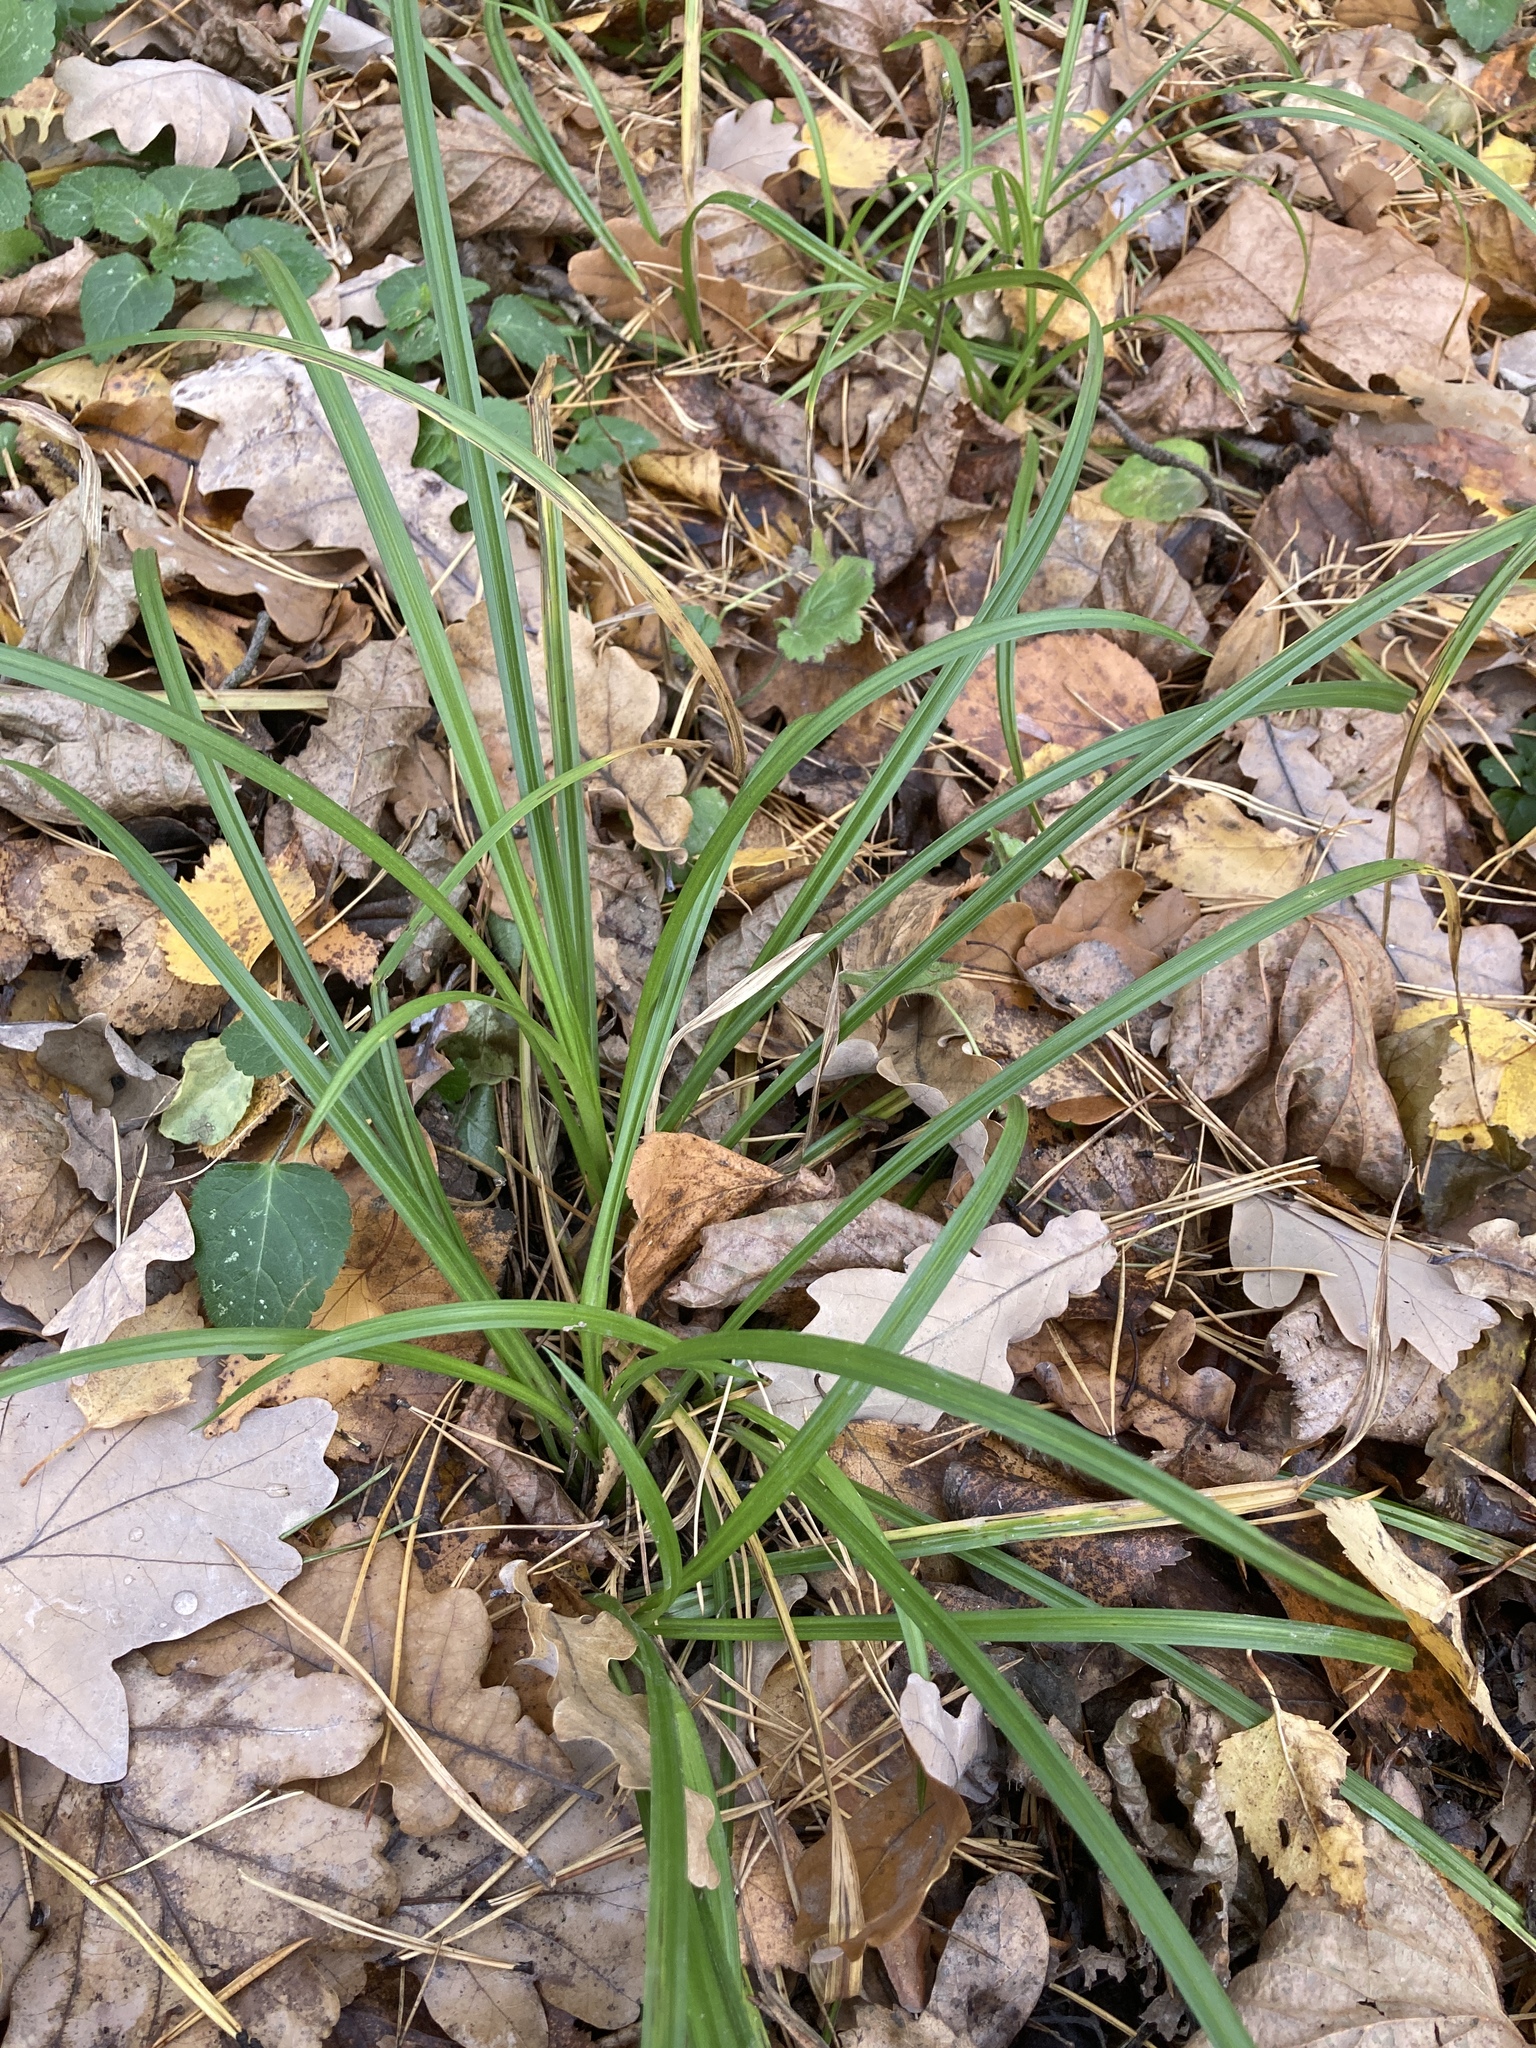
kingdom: Plantae
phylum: Tracheophyta
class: Liliopsida
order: Poales
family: Cyperaceae
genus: Carex
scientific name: Carex sylvatica
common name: Wood-sedge
